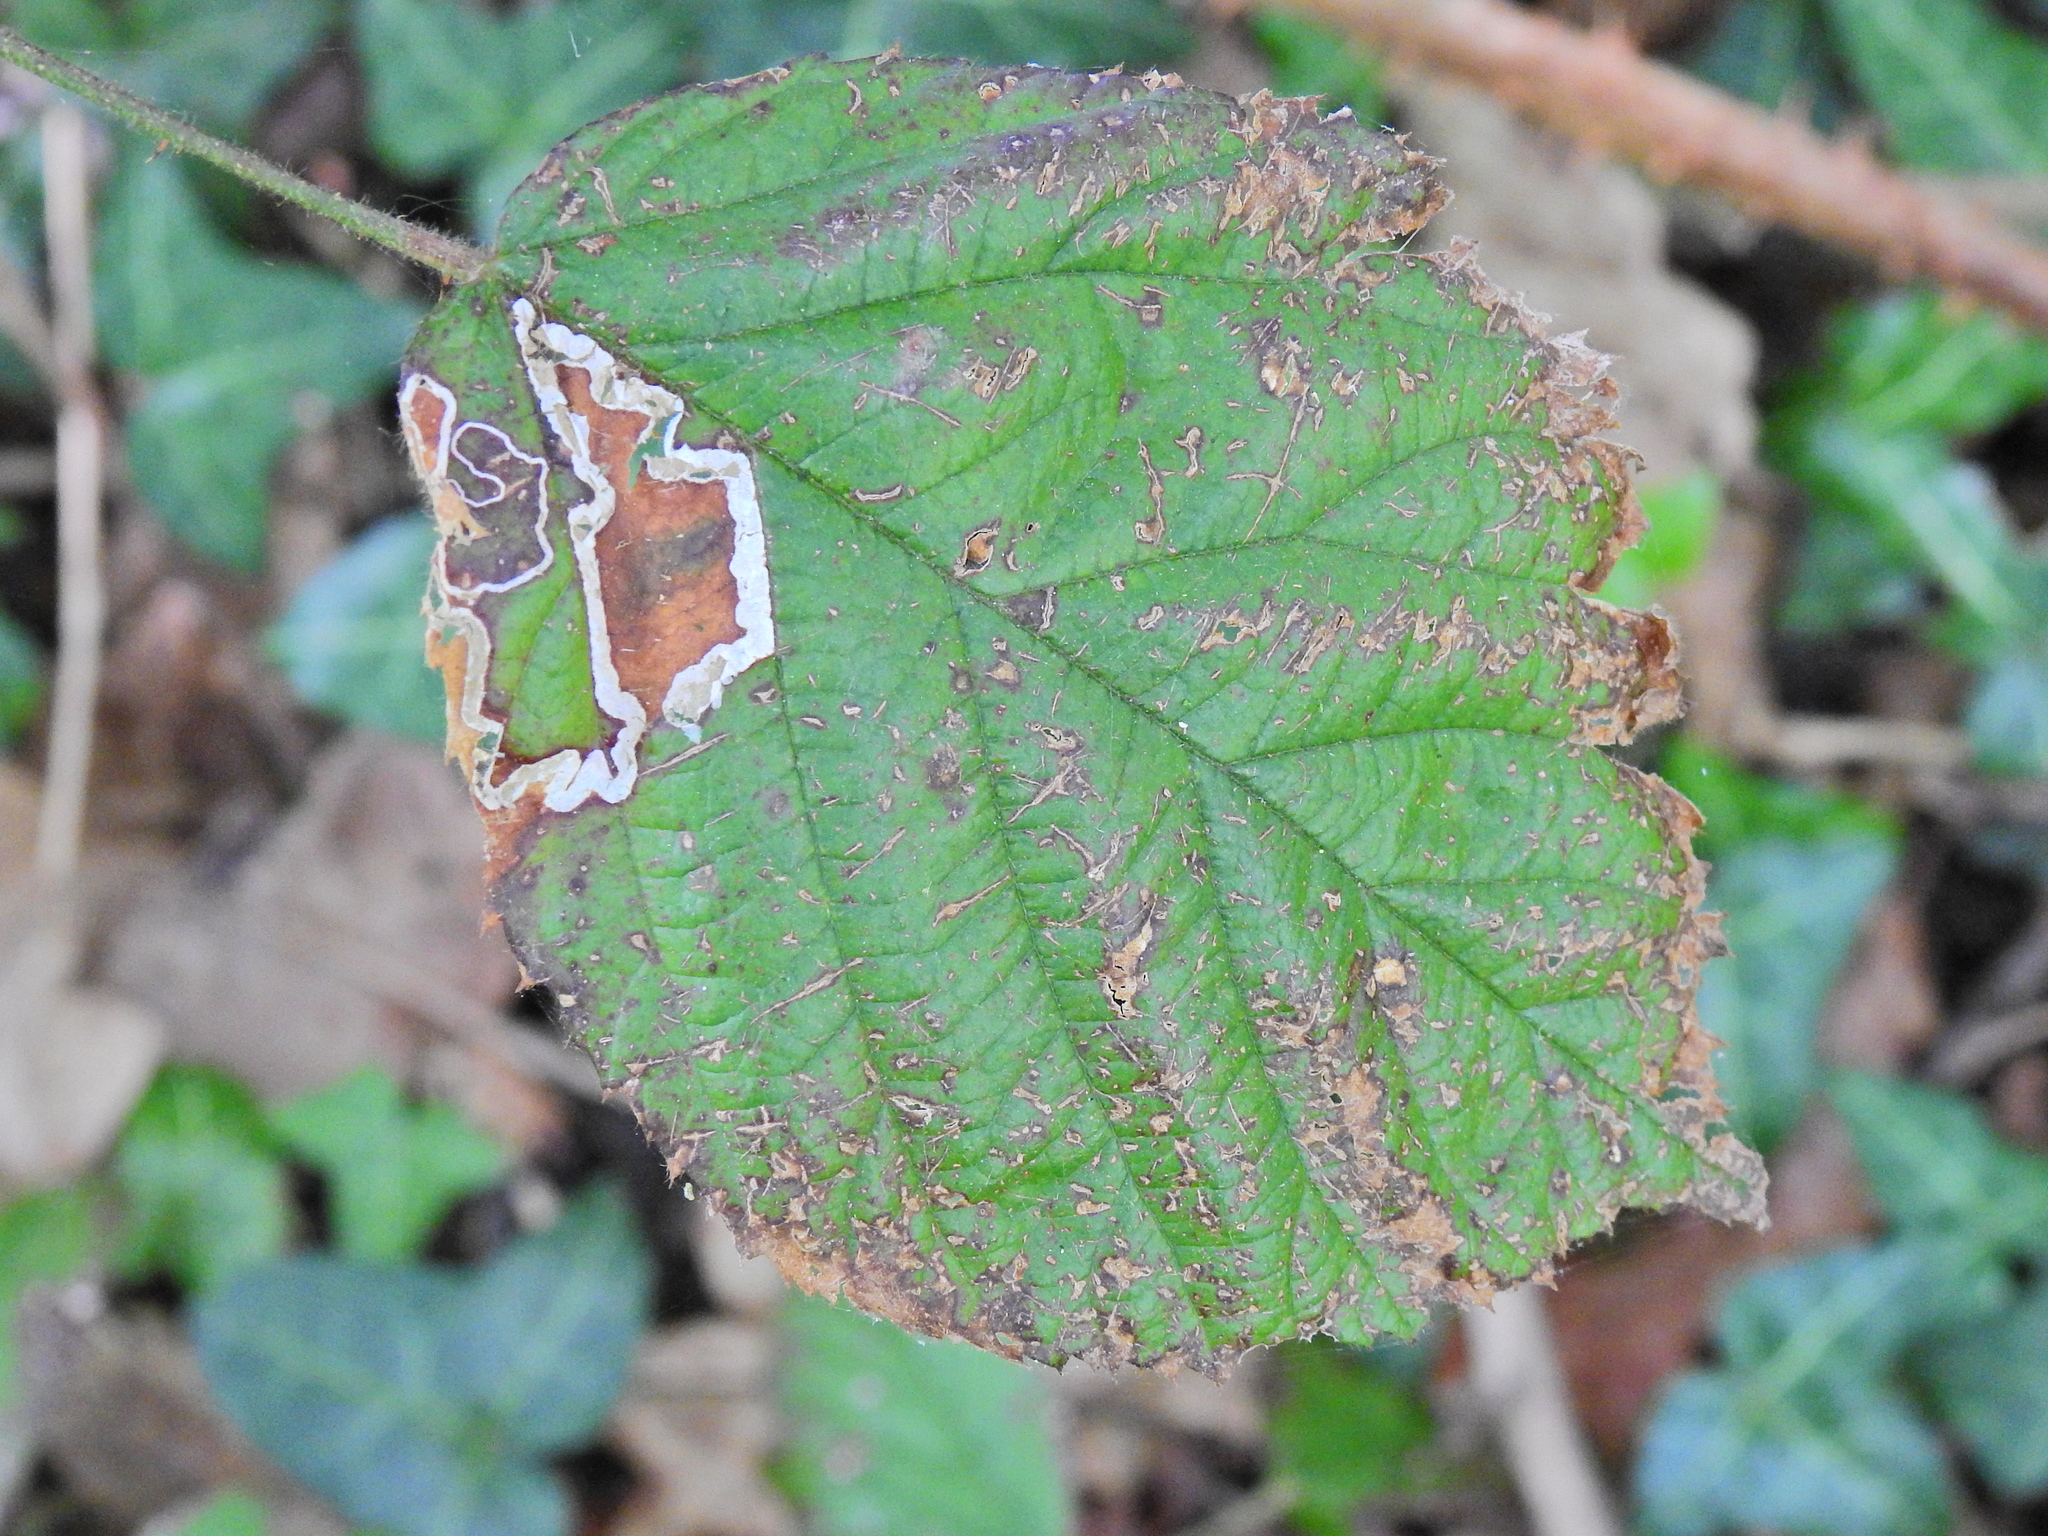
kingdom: Animalia
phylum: Arthropoda
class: Insecta
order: Lepidoptera
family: Nepticulidae
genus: Stigmella
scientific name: Stigmella aurella
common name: Golden pigmy
